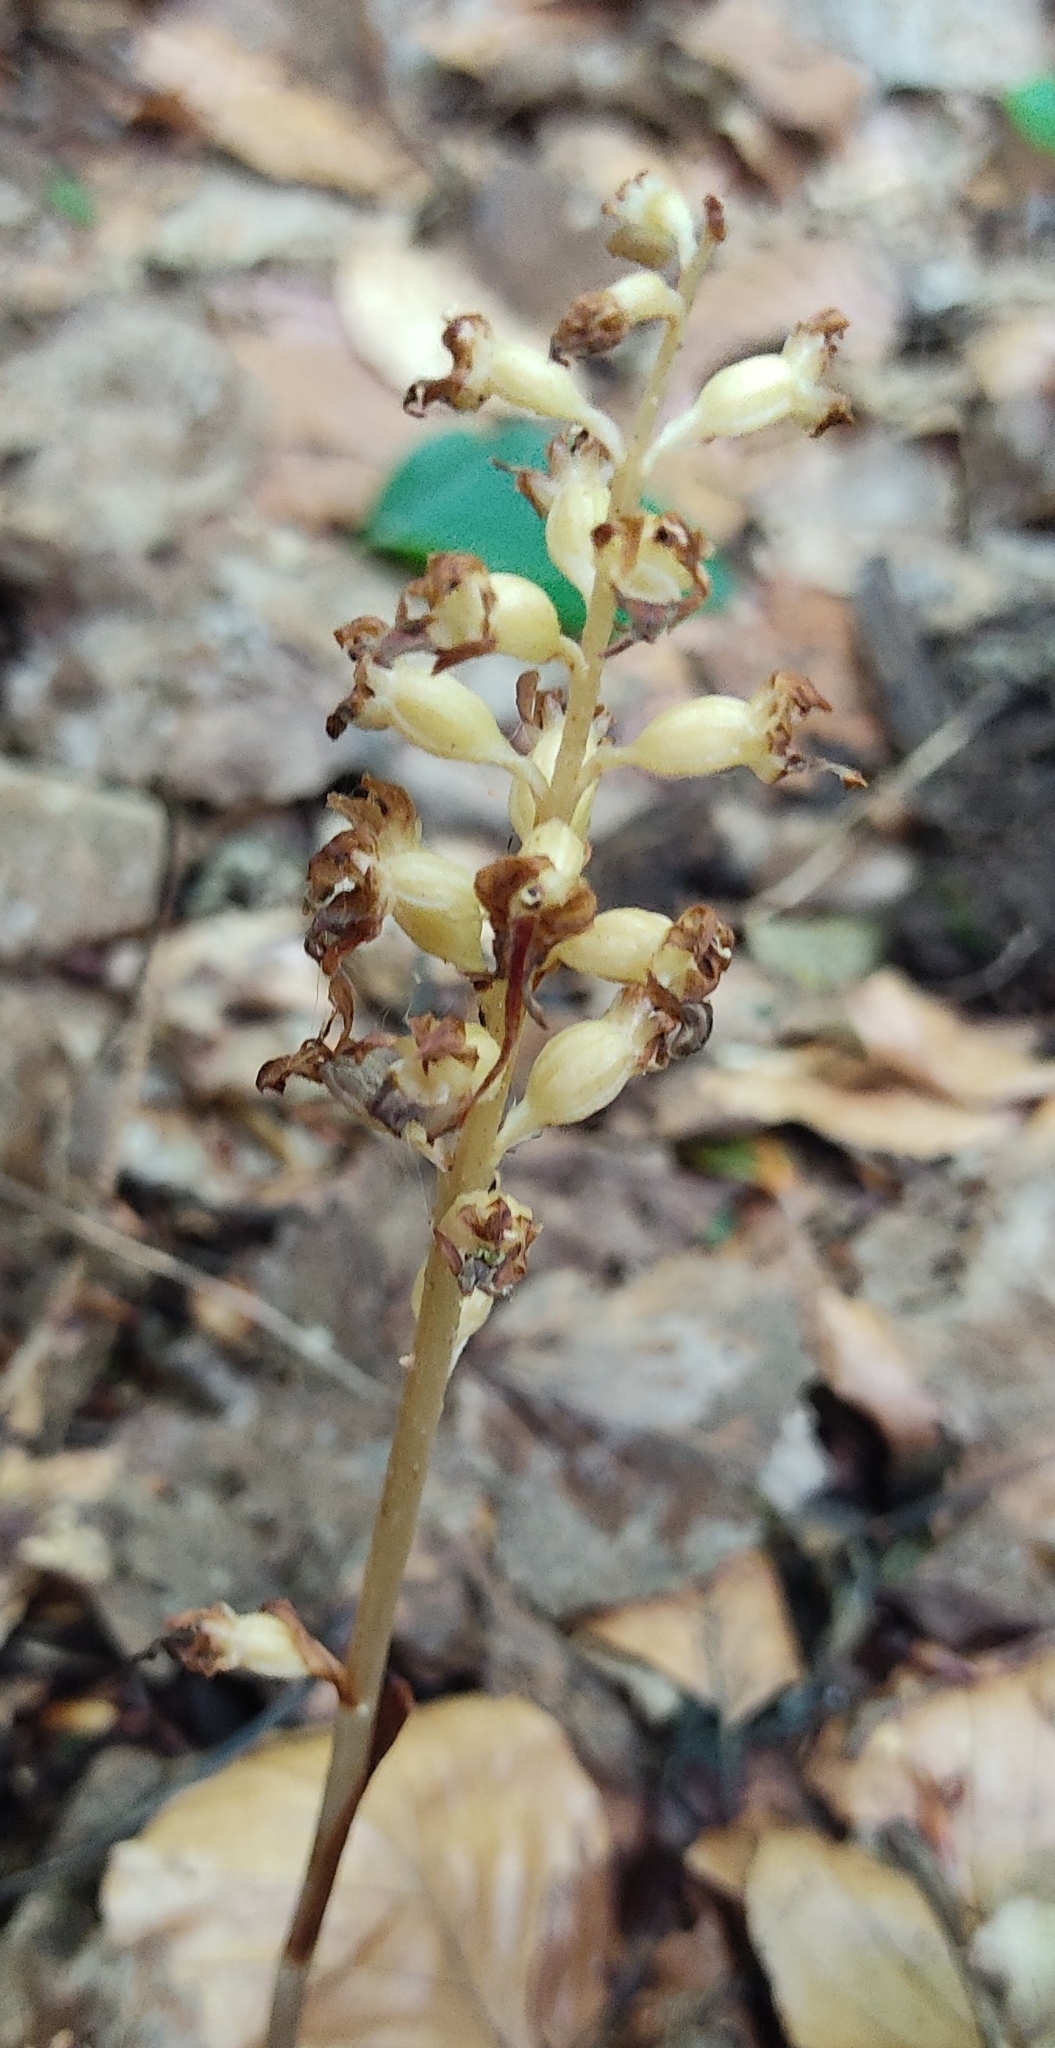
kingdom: Plantae
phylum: Tracheophyta
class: Liliopsida
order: Asparagales
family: Orchidaceae
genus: Neottia
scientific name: Neottia nidus-avis
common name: Bird's-nest orchid
